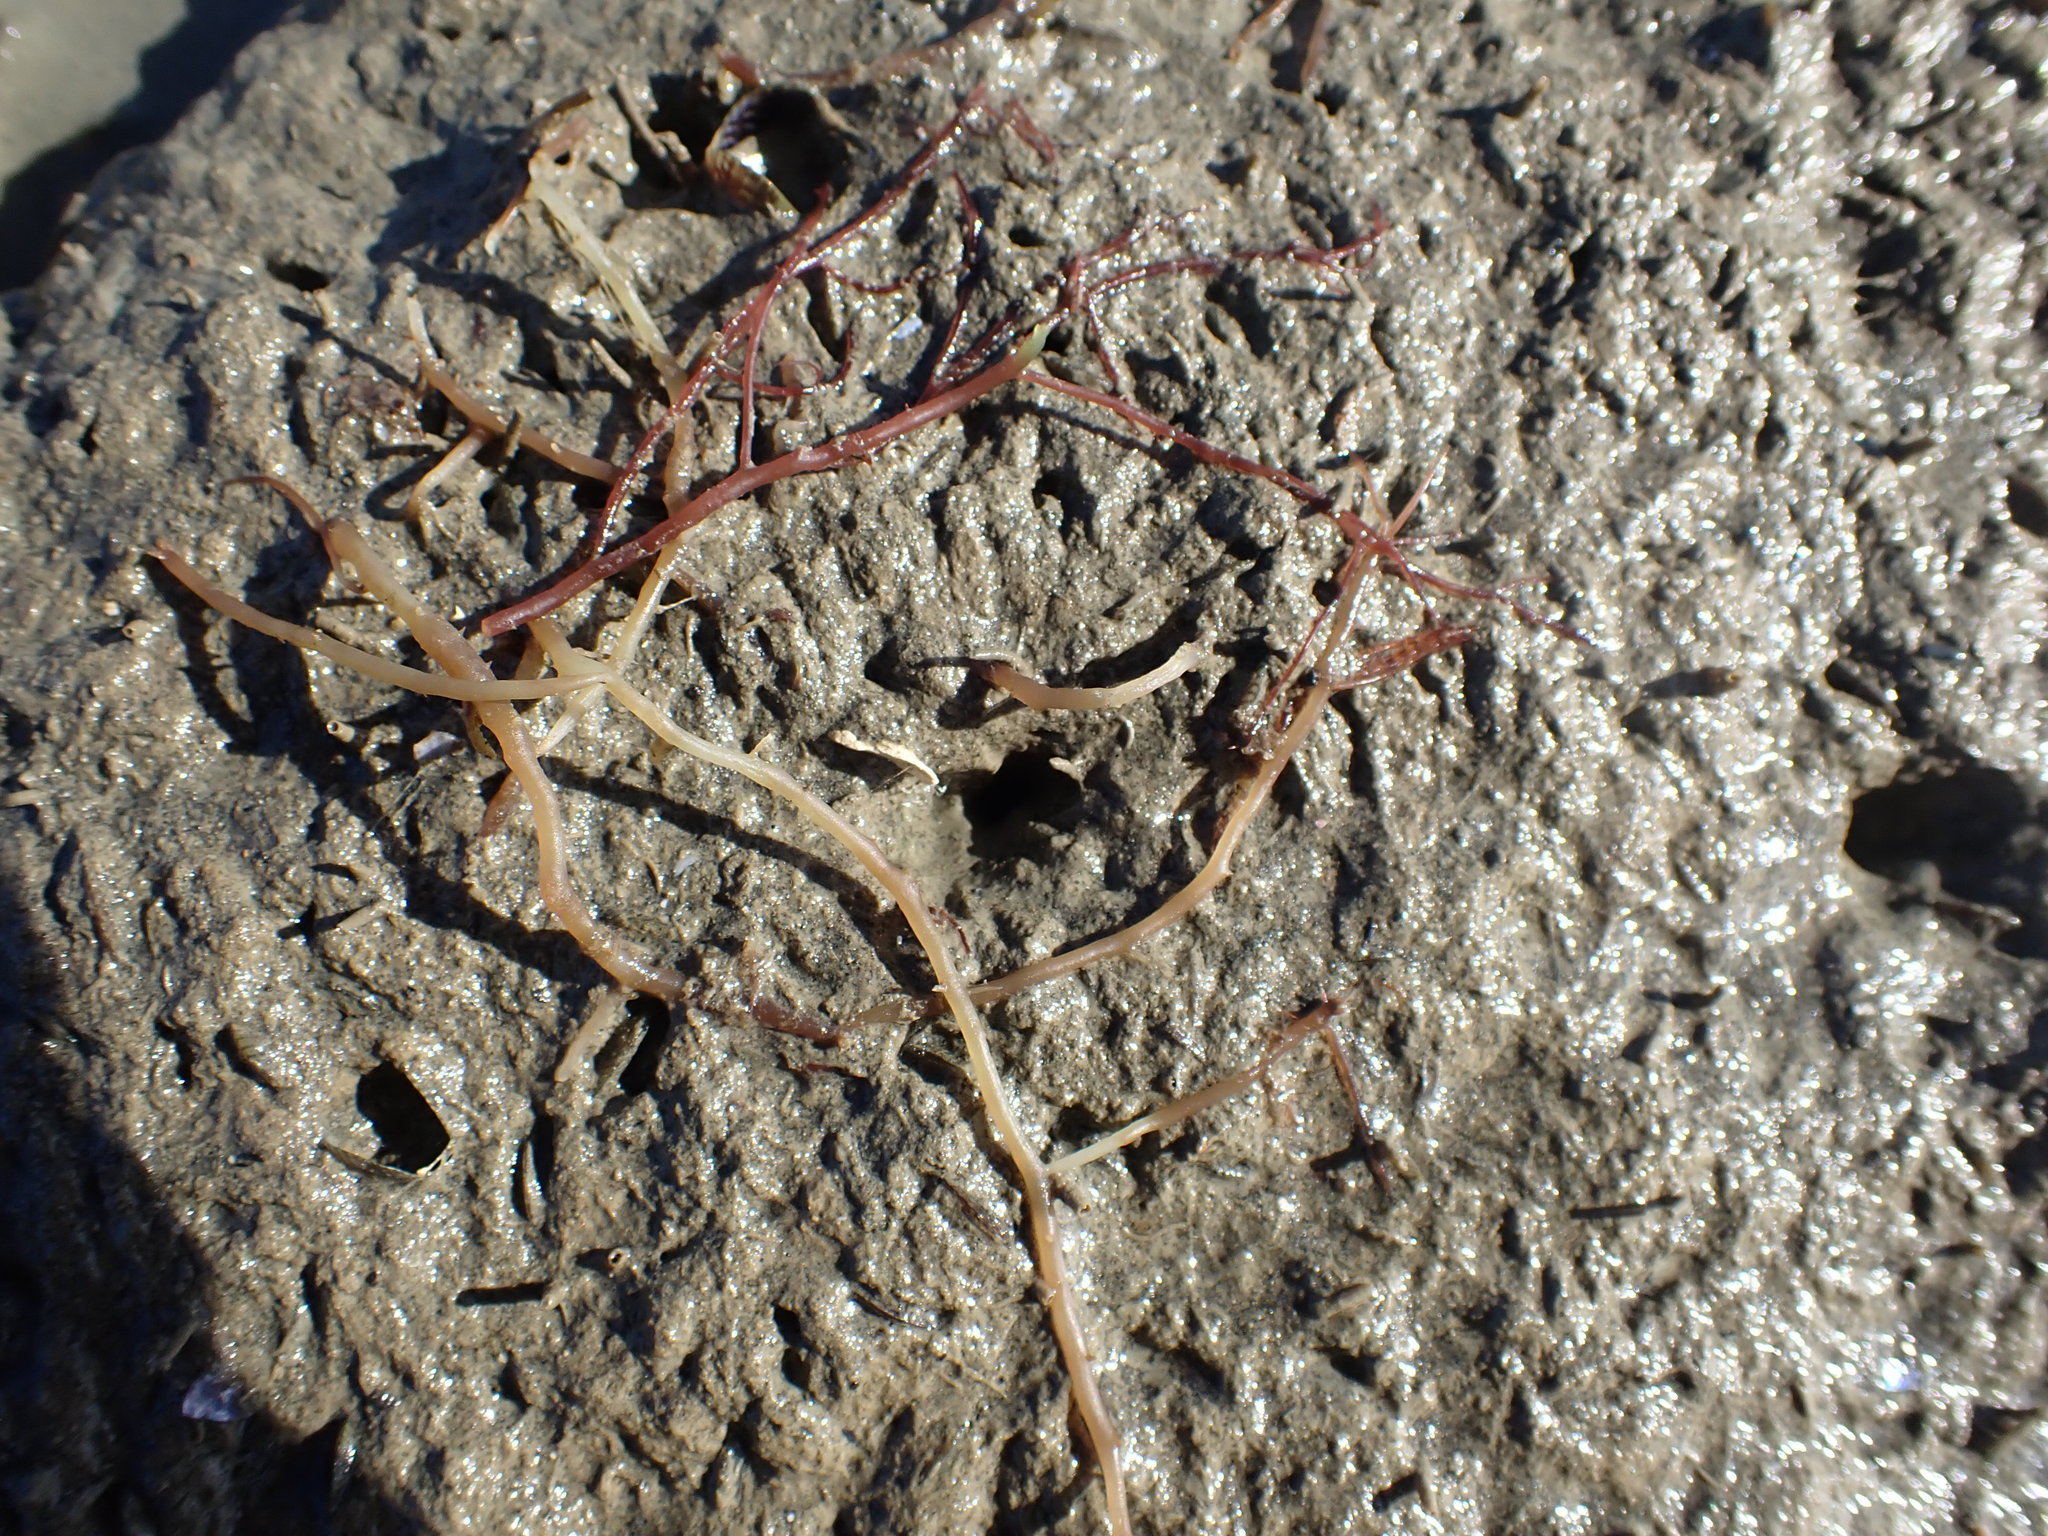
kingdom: Animalia
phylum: Mollusca
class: Bivalvia
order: Mytilida
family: Mytilidae
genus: Arcuatula
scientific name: Arcuatula senhousia
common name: Asian mussel
